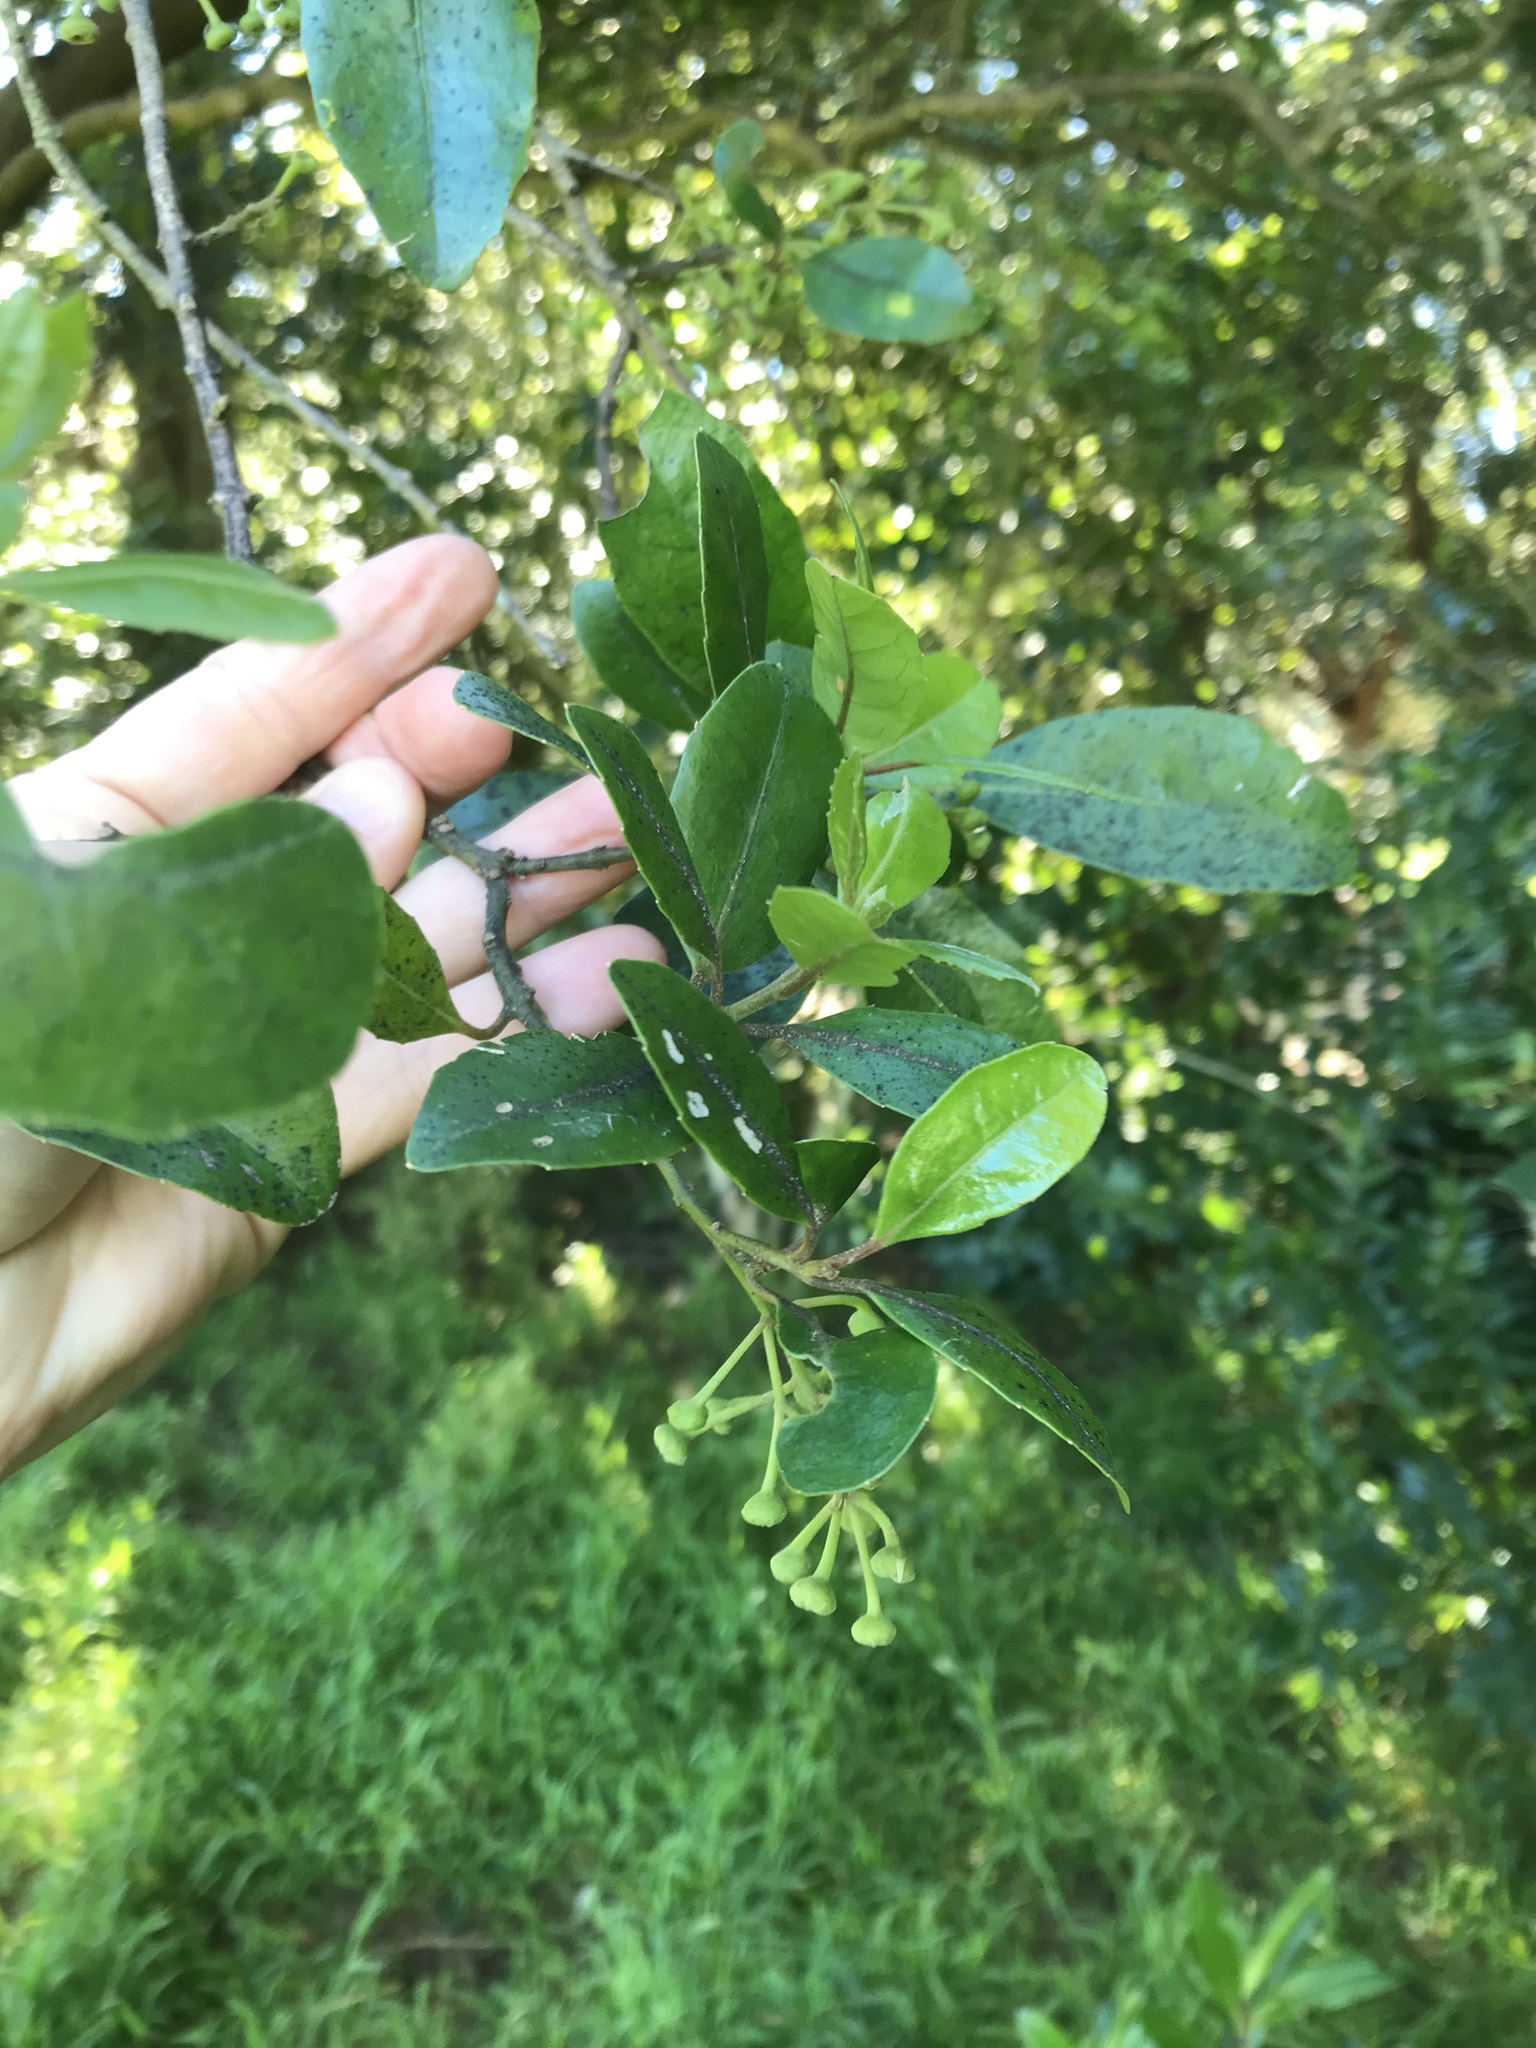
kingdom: Plantae
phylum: Tracheophyta
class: Magnoliopsida
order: Apiales
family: Pennantiaceae
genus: Pennantia
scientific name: Pennantia corymbosa
